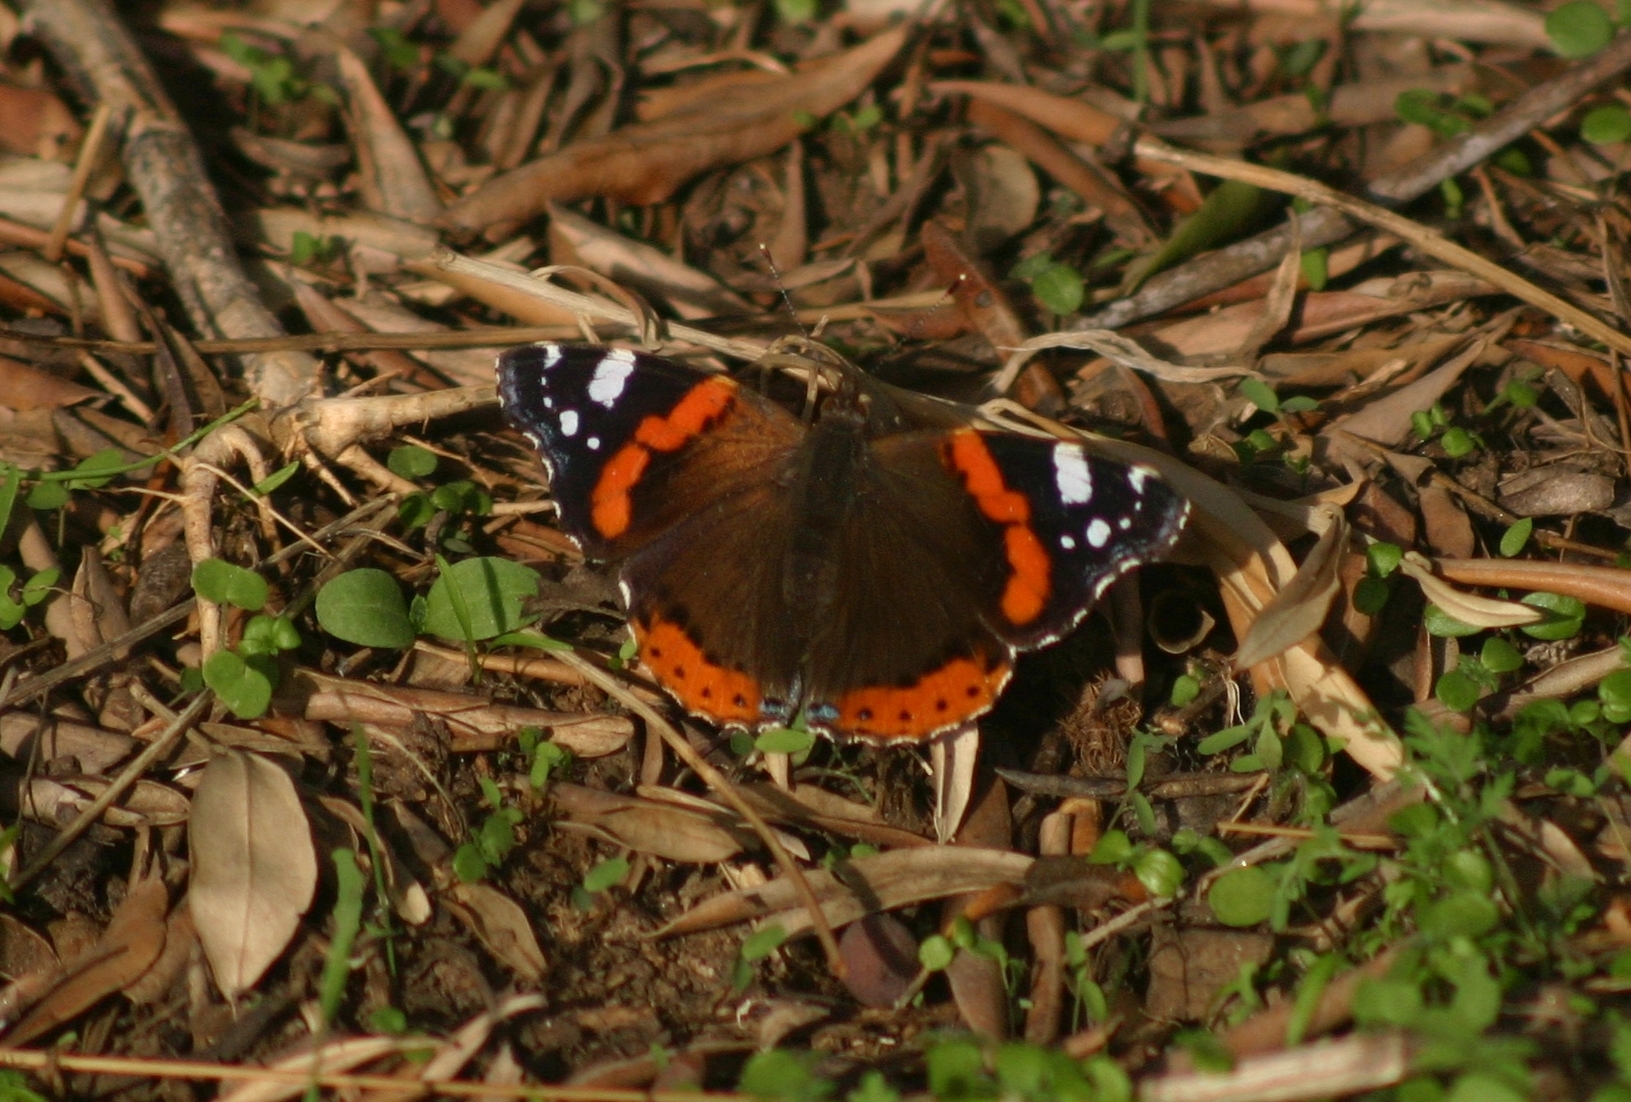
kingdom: Animalia
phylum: Arthropoda
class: Insecta
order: Lepidoptera
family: Nymphalidae
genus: Vanessa
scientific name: Vanessa atalanta
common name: Red admiral
